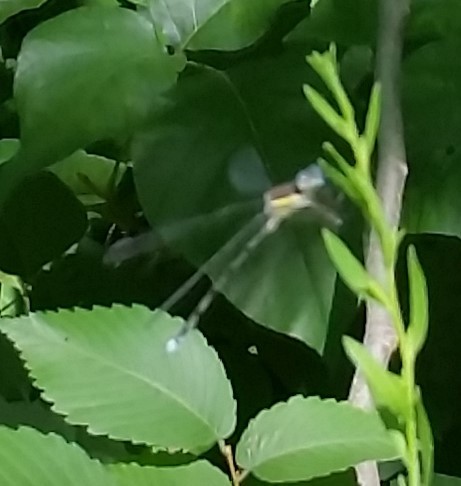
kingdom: Animalia
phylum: Arthropoda
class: Insecta
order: Odonata
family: Lestidae
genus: Archilestes
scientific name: Archilestes grandis
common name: Great spreadwing
